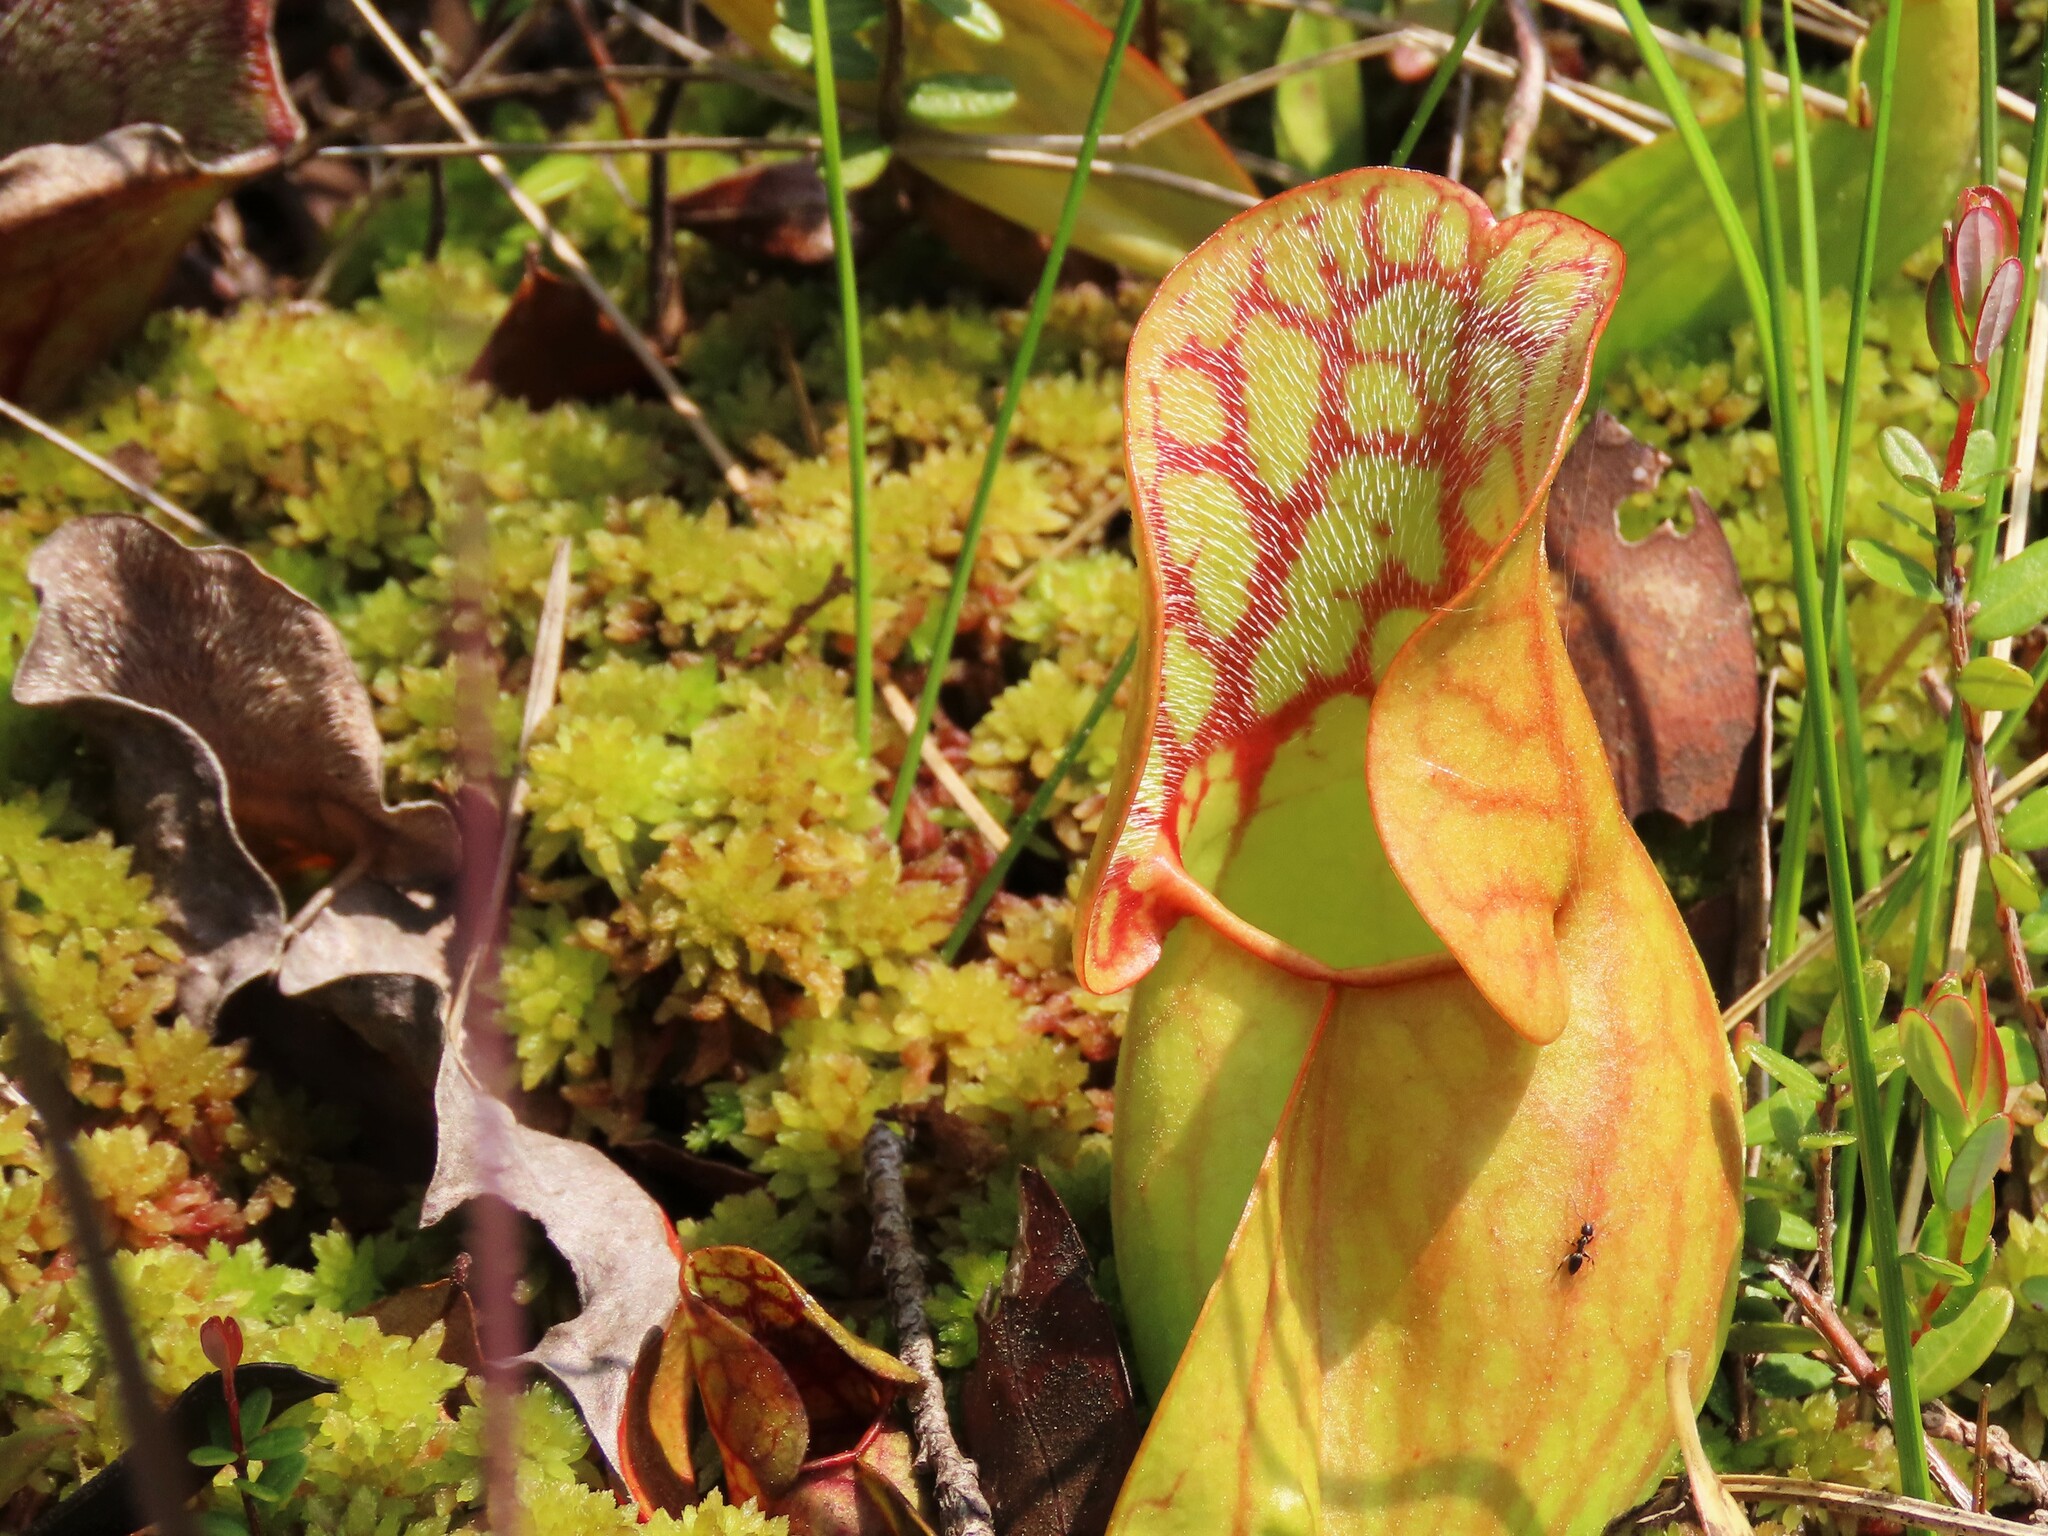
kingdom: Plantae
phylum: Tracheophyta
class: Magnoliopsida
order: Ericales
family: Sarraceniaceae
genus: Sarracenia
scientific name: Sarracenia purpurea
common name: Pitcherplant
